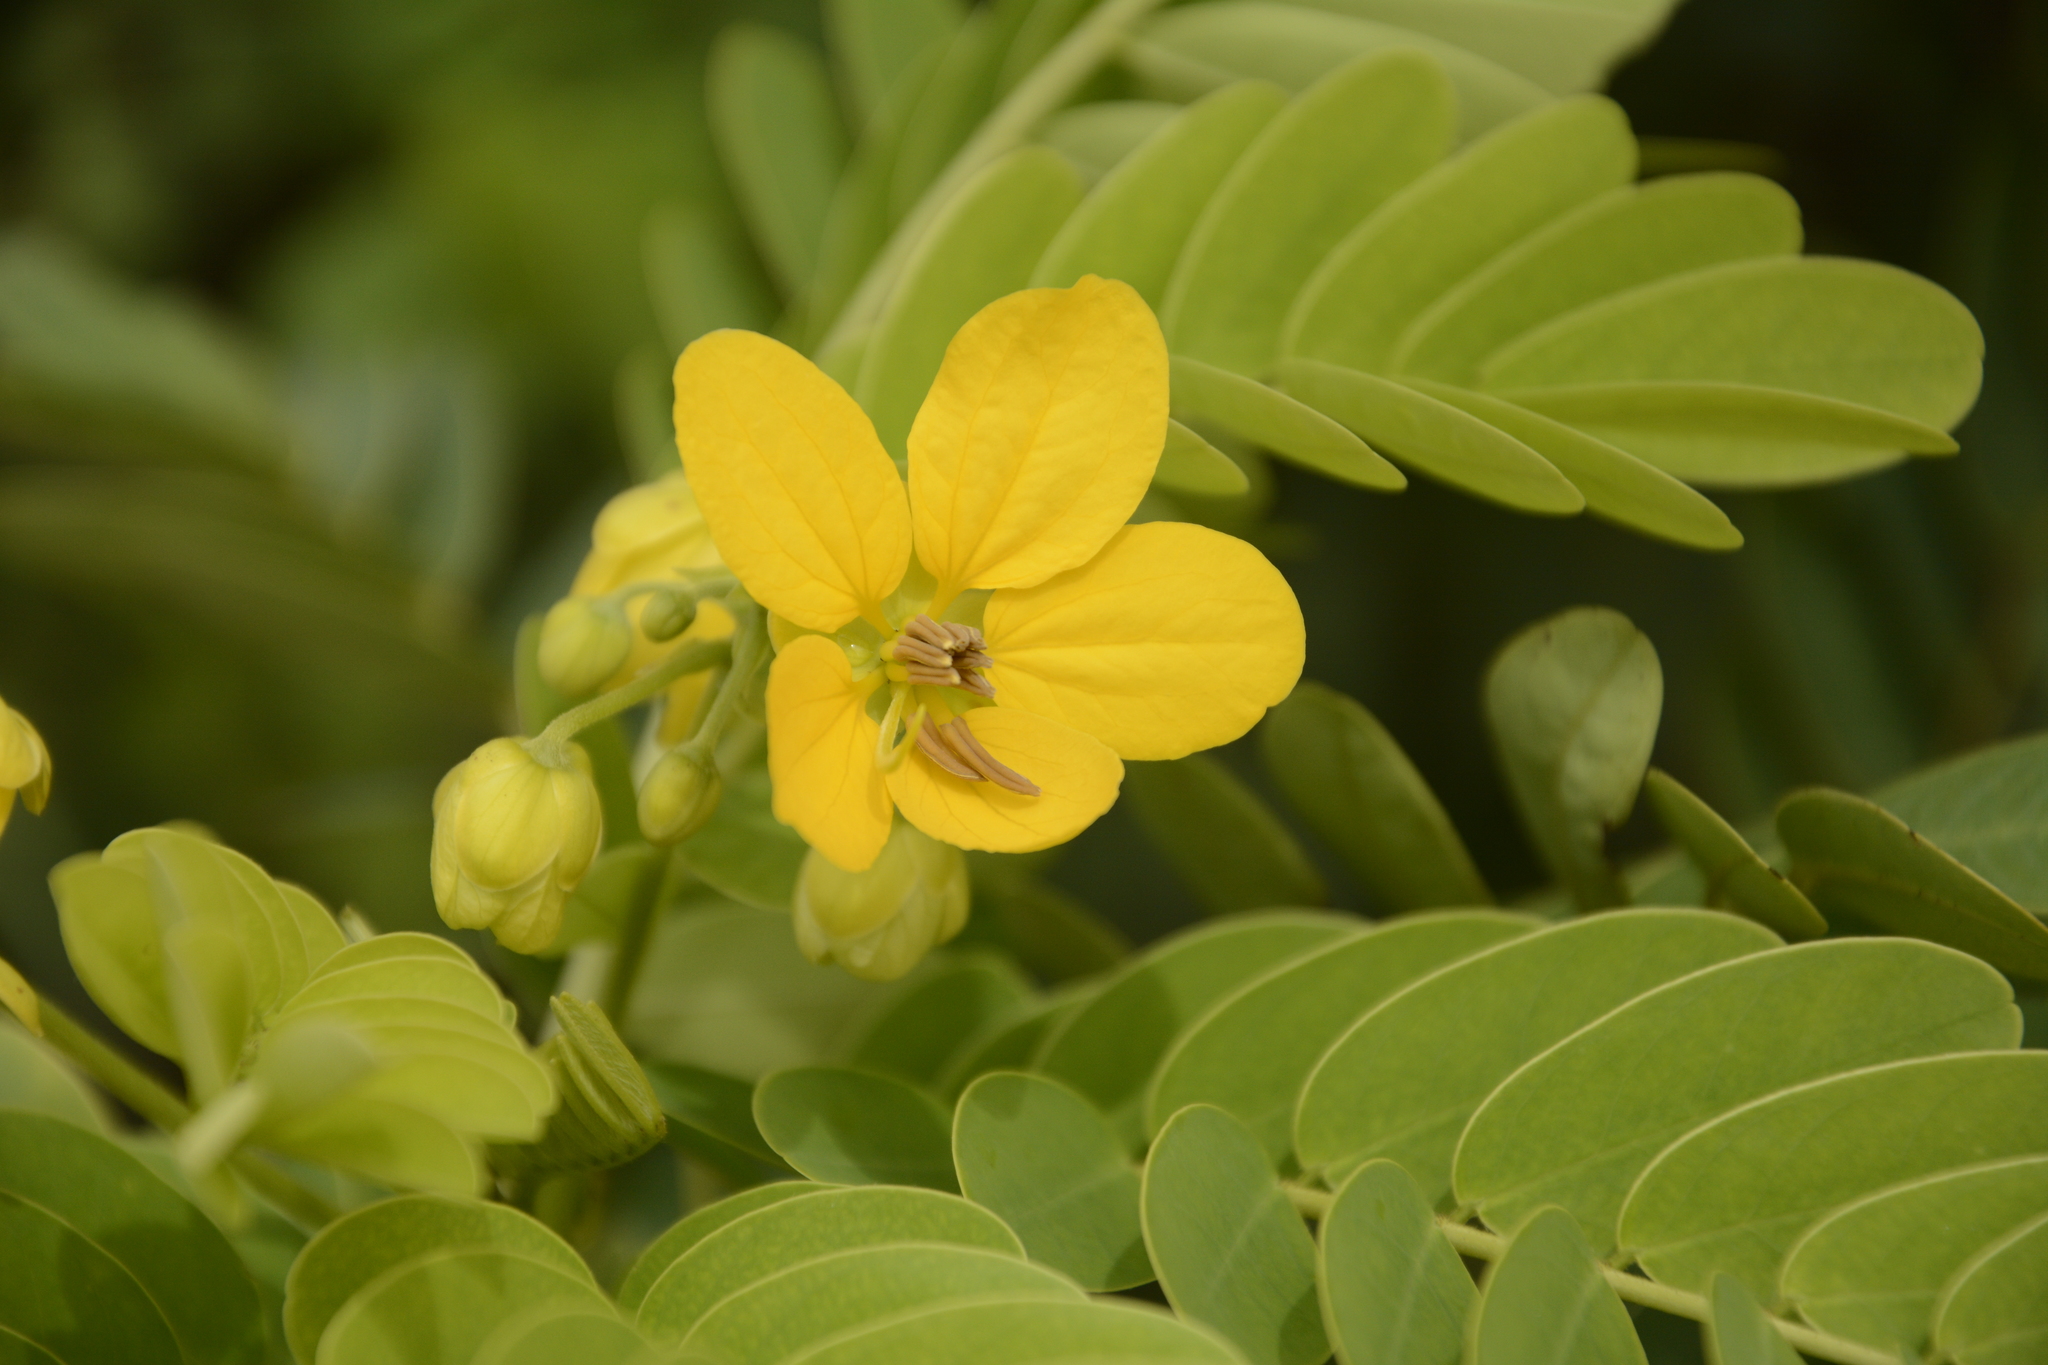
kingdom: Plantae
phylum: Tracheophyta
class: Magnoliopsida
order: Fabales
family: Fabaceae
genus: Senna
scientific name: Senna surattensis
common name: Glossy shower
